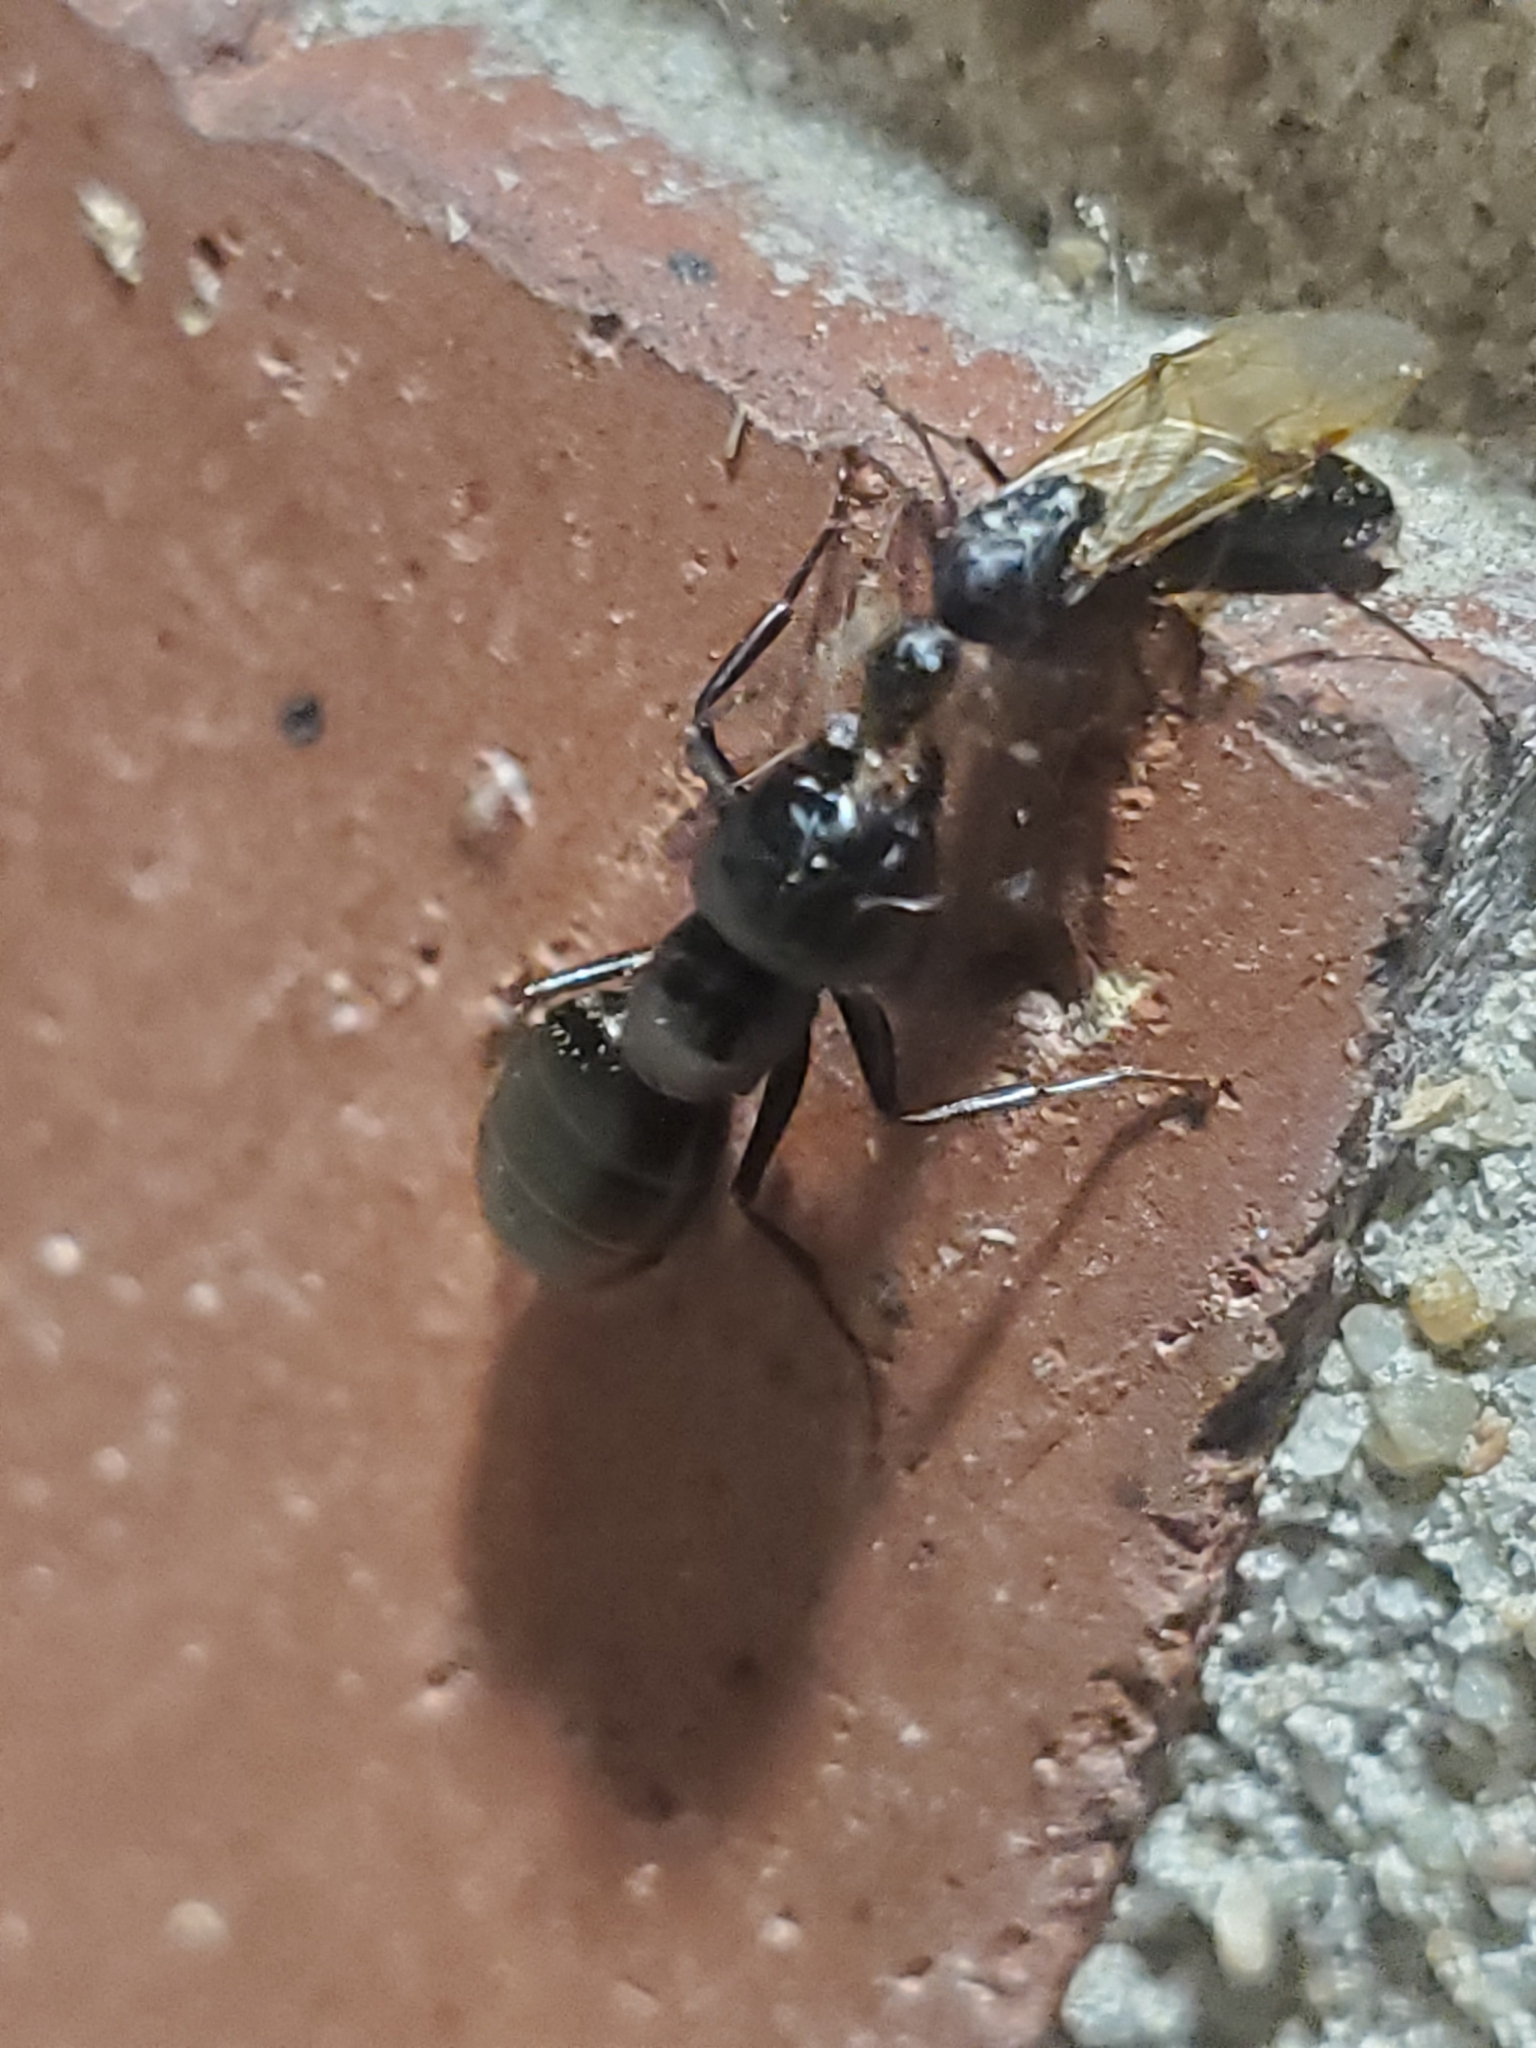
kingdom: Animalia
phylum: Arthropoda
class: Insecta
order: Hymenoptera
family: Formicidae
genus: Camponotus
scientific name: Camponotus pennsylvanicus
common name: Black carpenter ant
